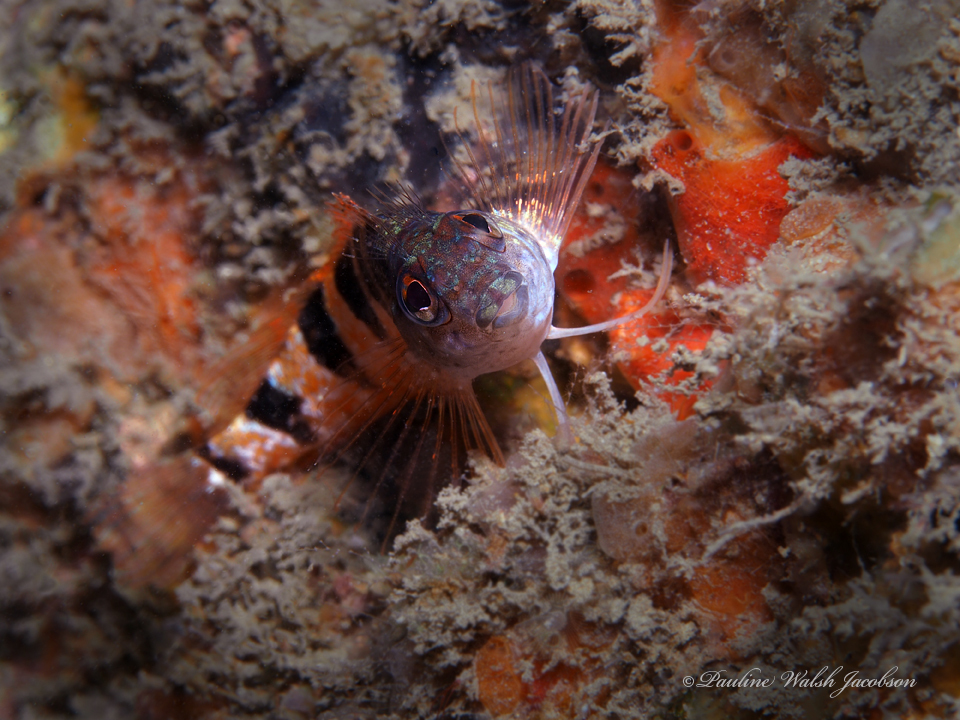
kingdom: Animalia
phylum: Chordata
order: Perciformes
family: Labrisomidae
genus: Malacoctenus
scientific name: Malacoctenus triangulatus
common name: Saddled blenny
